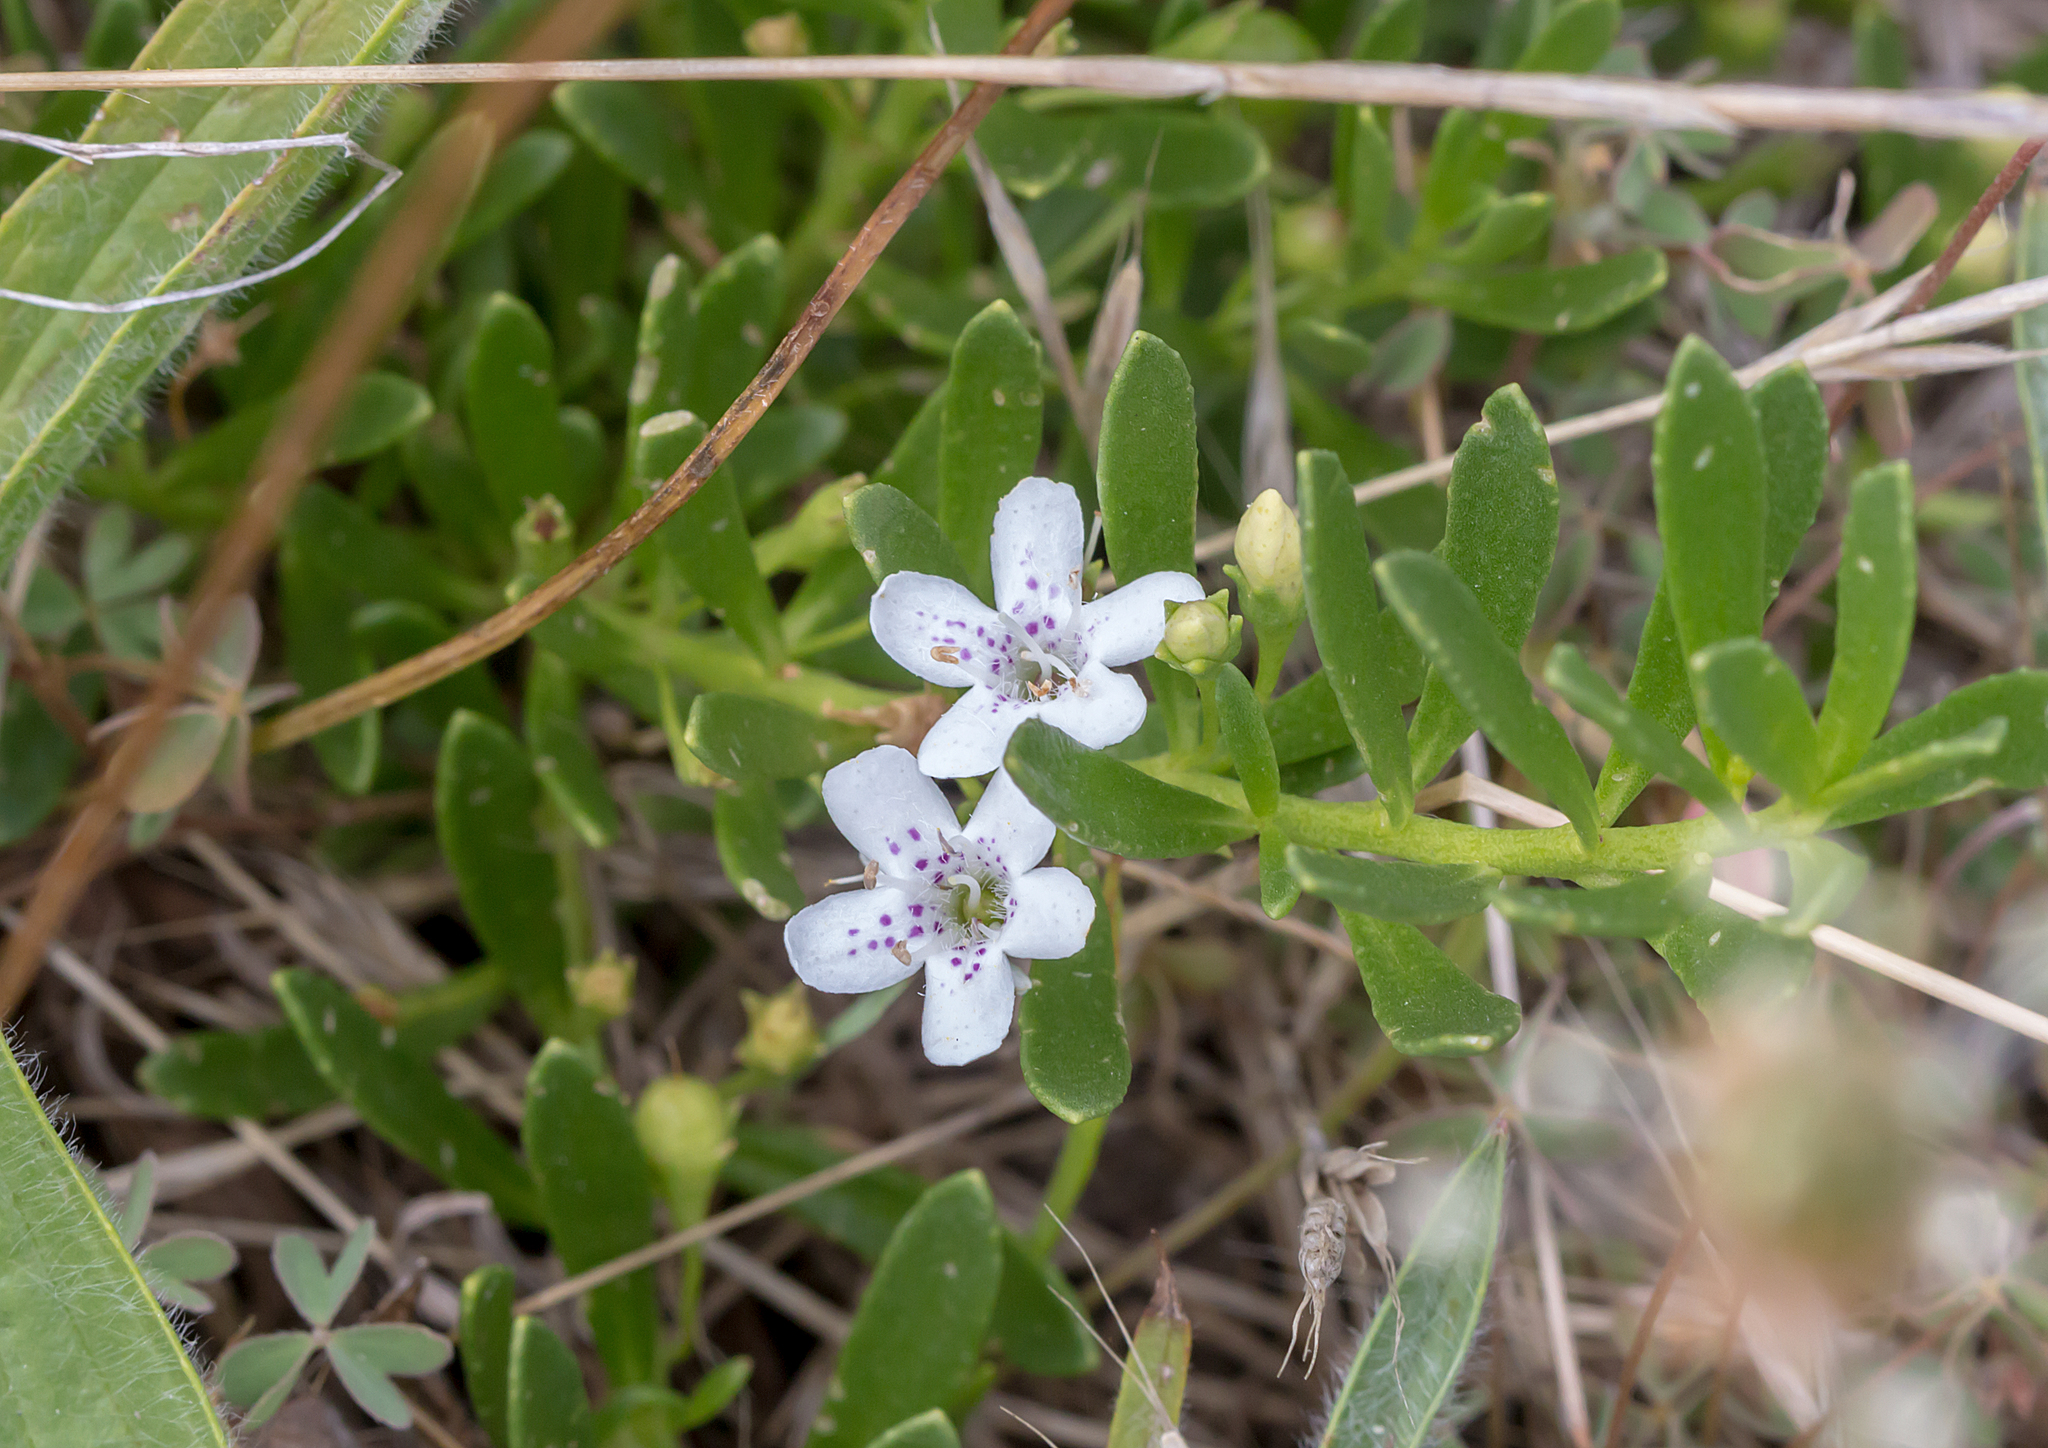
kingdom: Plantae
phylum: Tracheophyta
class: Magnoliopsida
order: Lamiales
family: Scrophulariaceae
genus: Myoporum
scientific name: Myoporum parvifolium
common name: Dwarf native-myrtle
